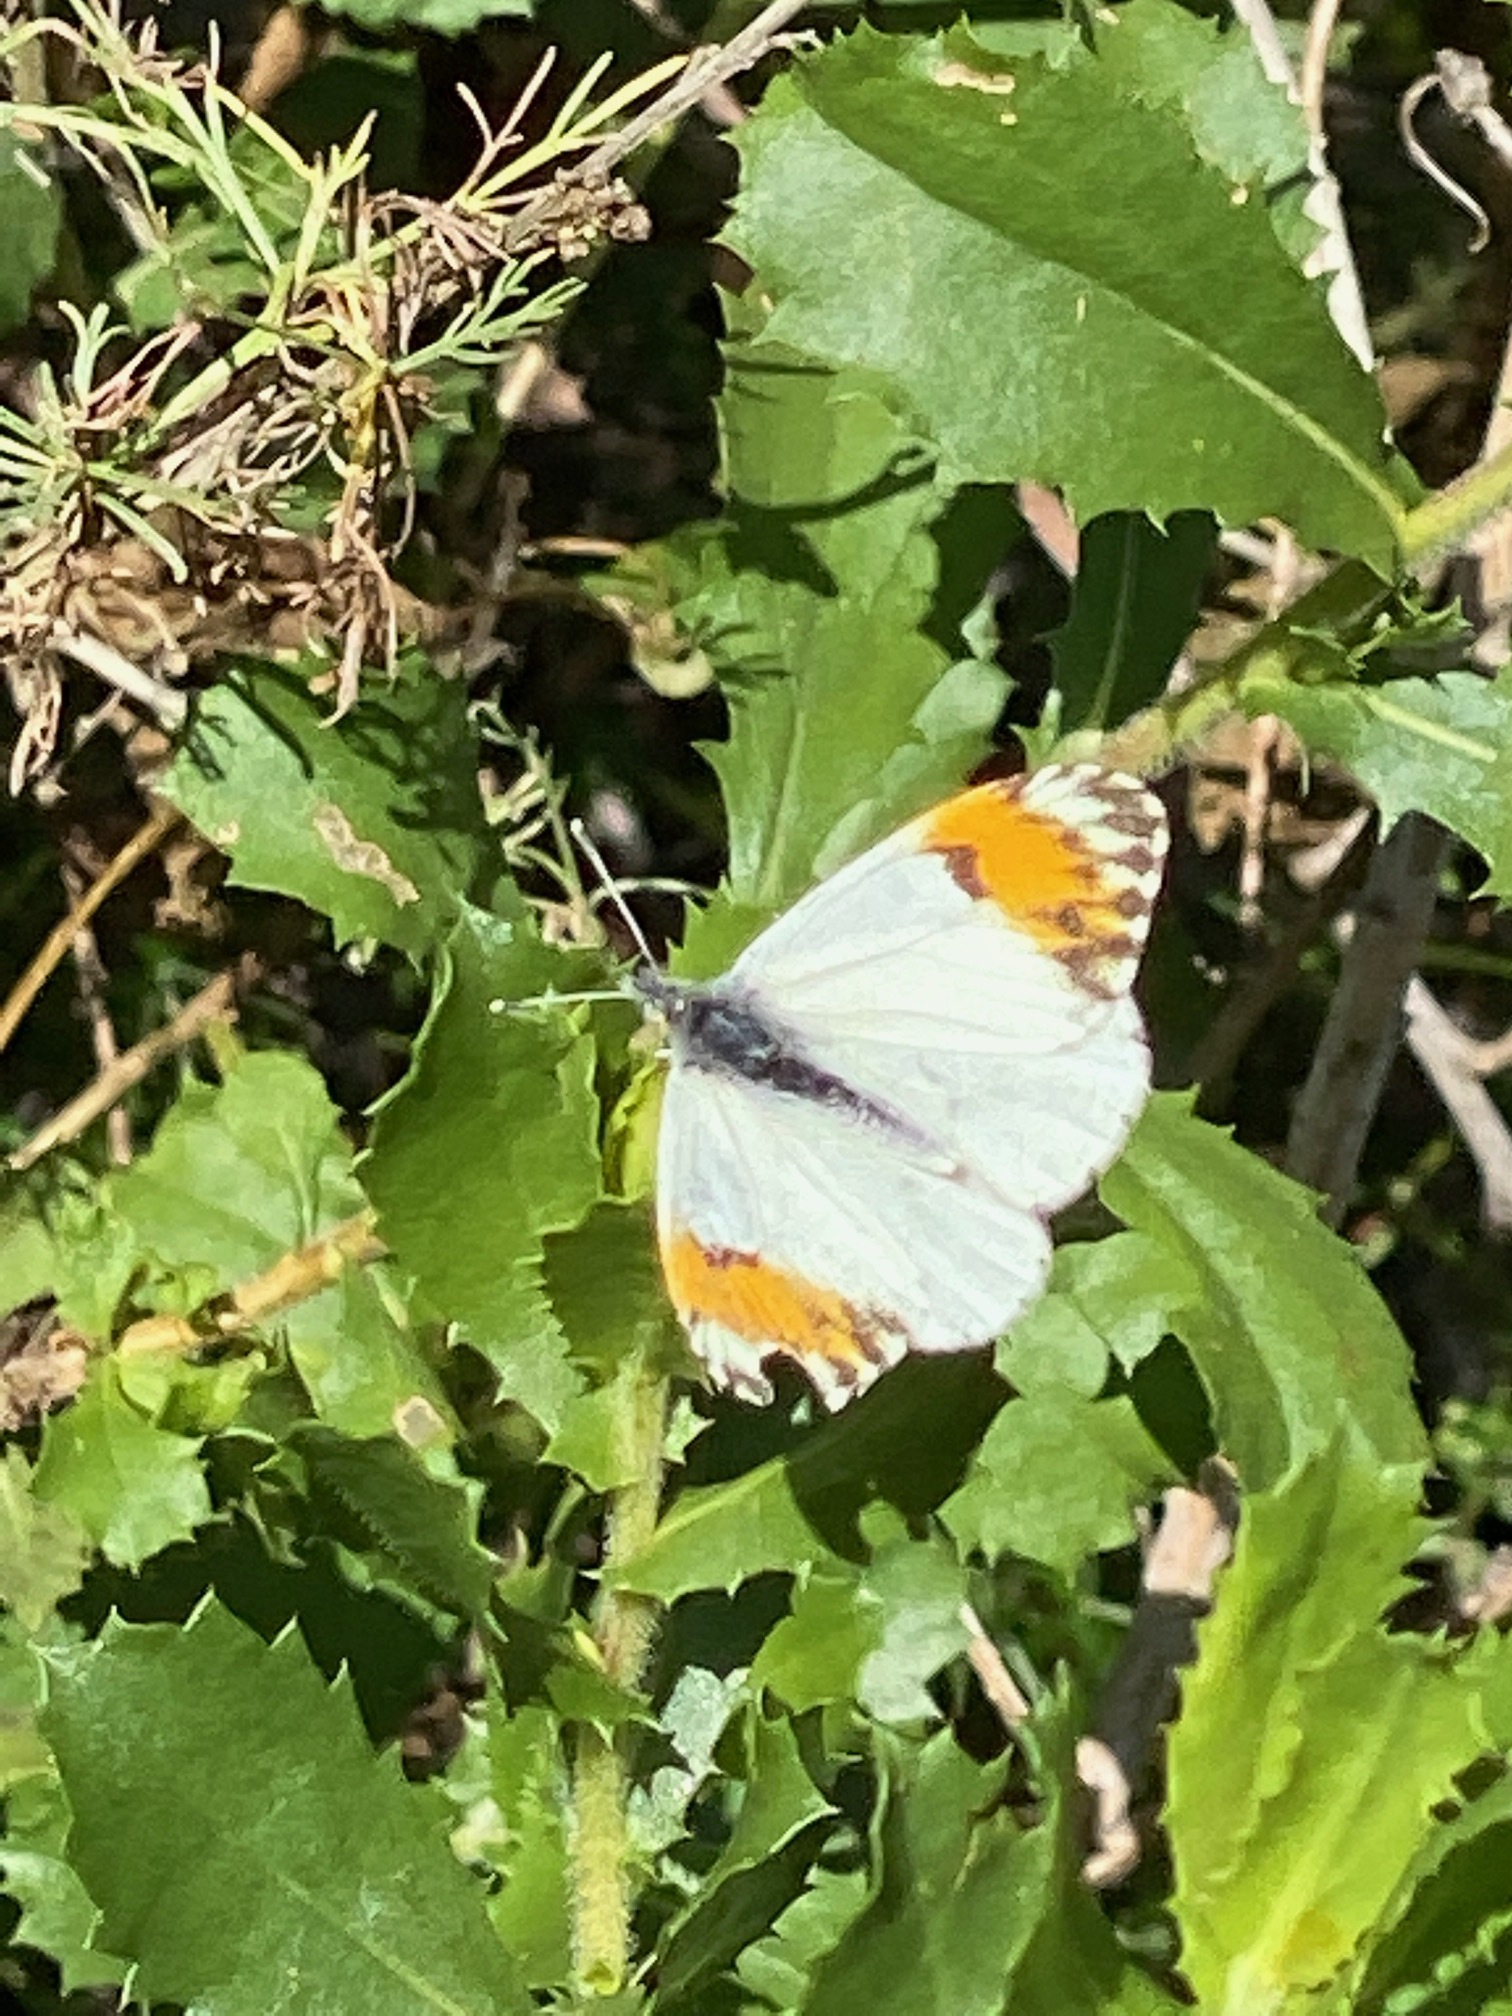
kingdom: Animalia
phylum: Arthropoda
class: Insecta
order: Lepidoptera
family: Pieridae
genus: Anthocharis
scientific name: Anthocharis sara
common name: Sara's orangetip
